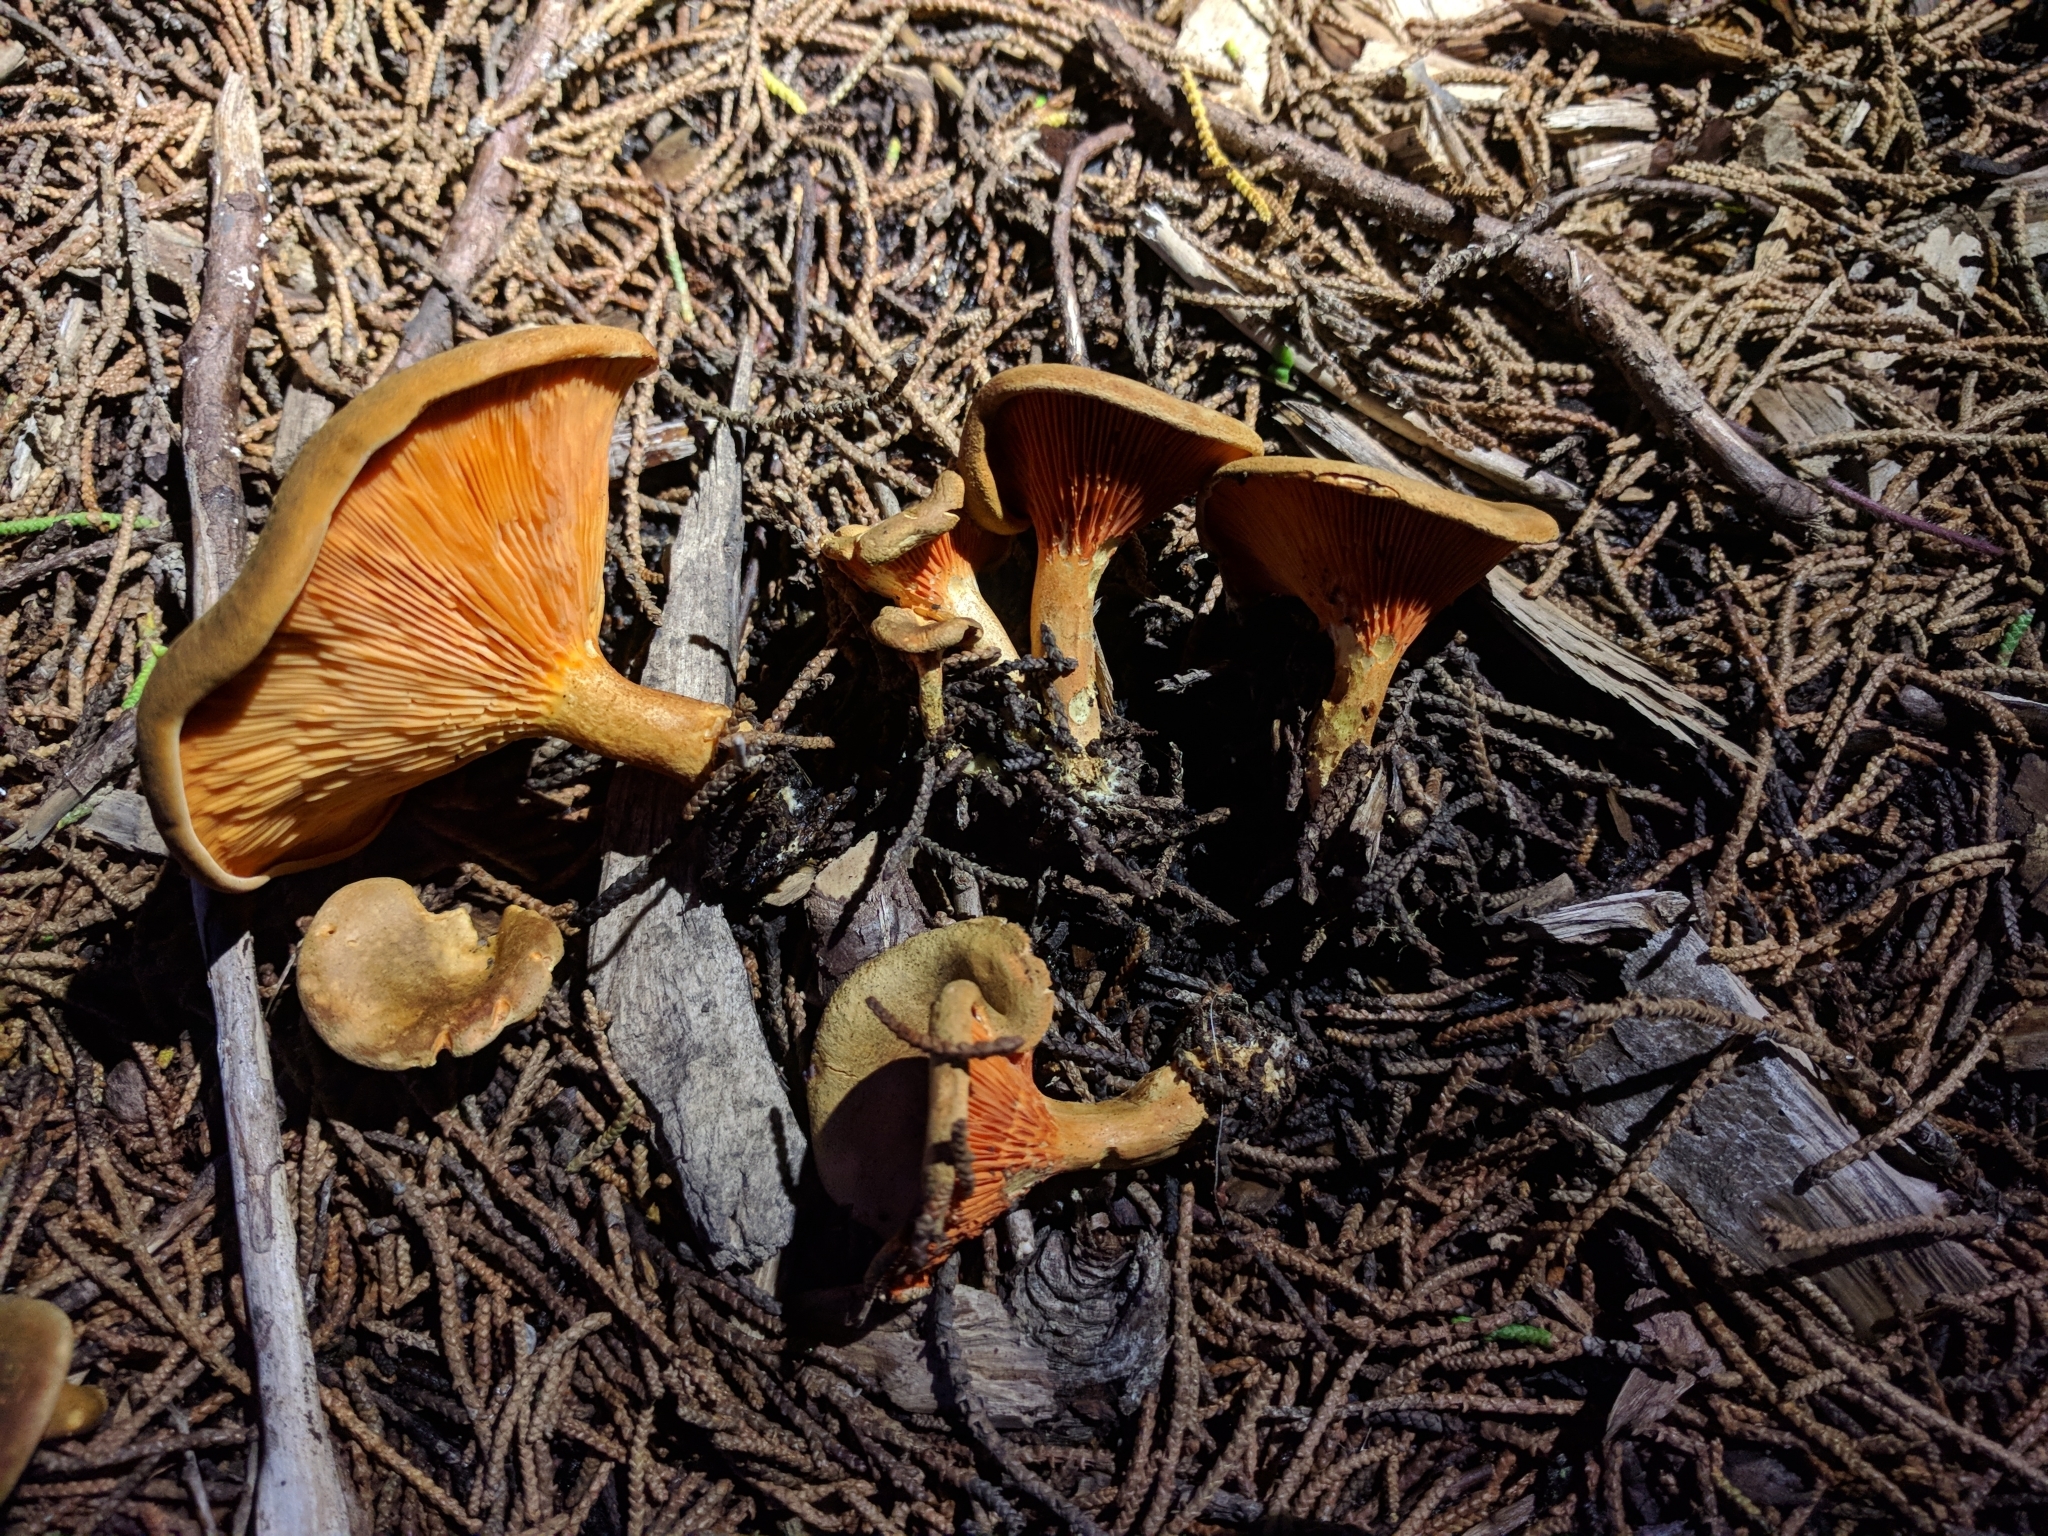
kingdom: Fungi
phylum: Basidiomycota
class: Agaricomycetes
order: Boletales
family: Hygrophoropsidaceae
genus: Hygrophoropsis
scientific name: Hygrophoropsis aurantiaca
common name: False chanterelle
